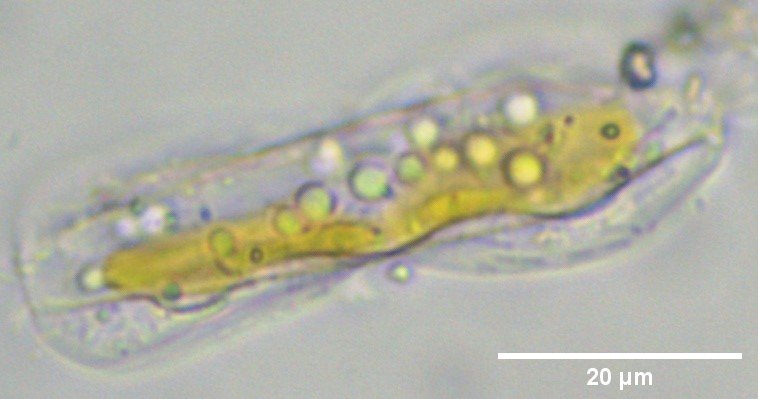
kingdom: Chromista
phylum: Ochrophyta
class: Bacillariophyceae
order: Surirellales
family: Entomoneidaceae
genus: Entomoneis
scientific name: Entomoneis paludosa
